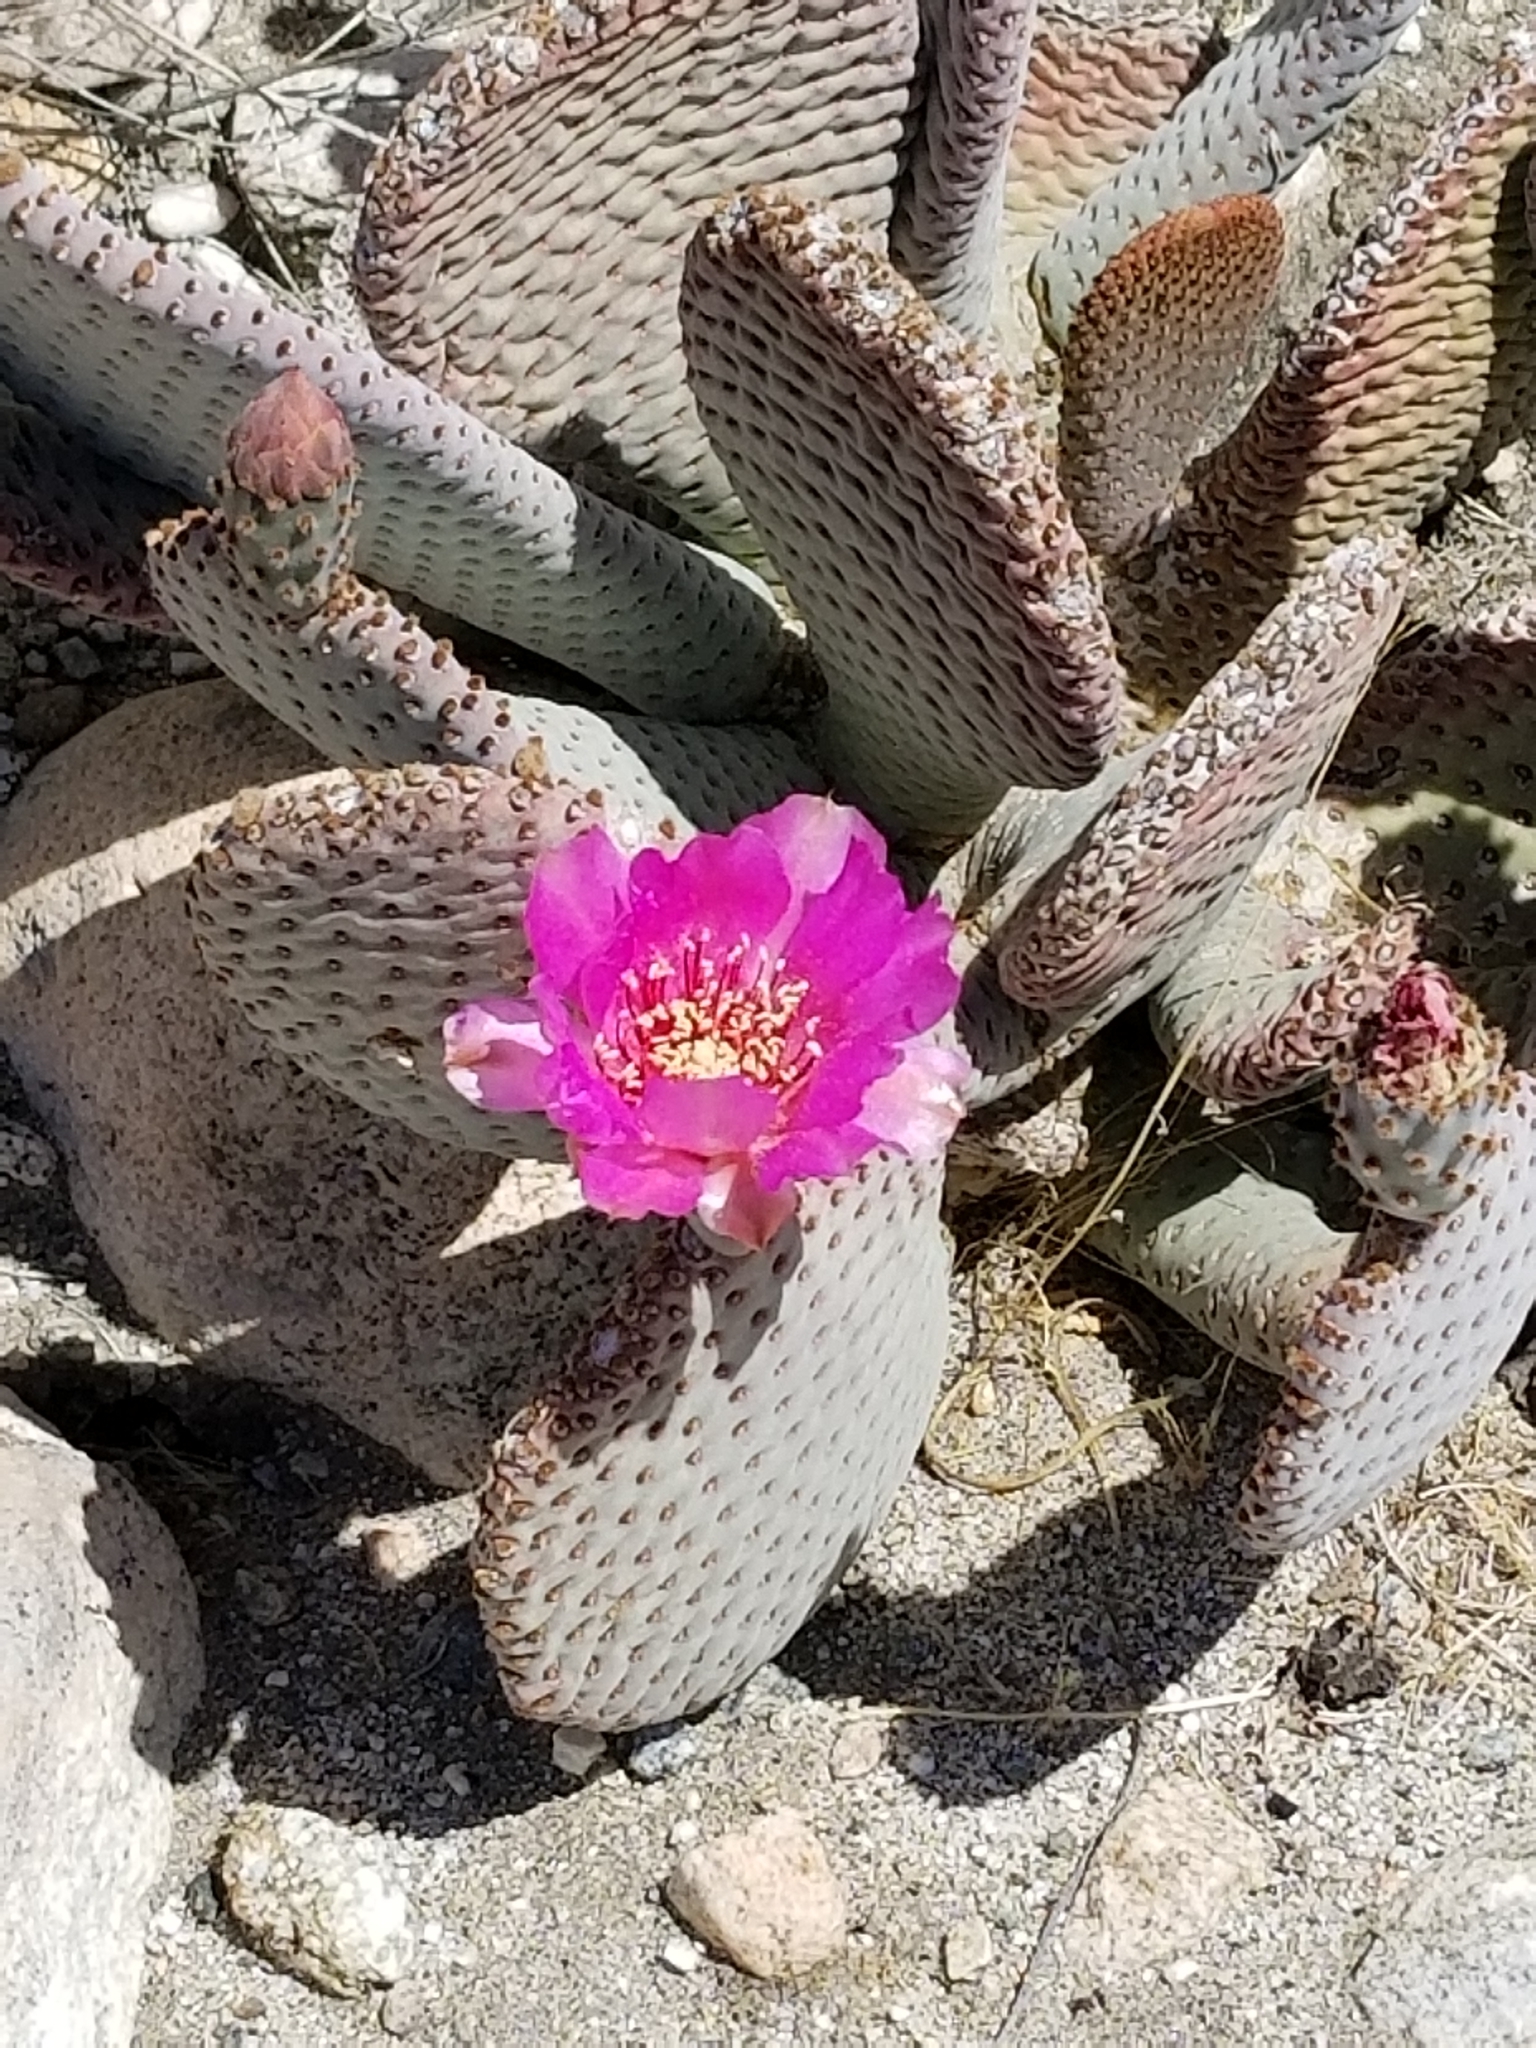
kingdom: Plantae
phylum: Tracheophyta
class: Magnoliopsida
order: Caryophyllales
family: Cactaceae
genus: Opuntia
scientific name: Opuntia basilaris
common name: Beavertail prickly-pear
